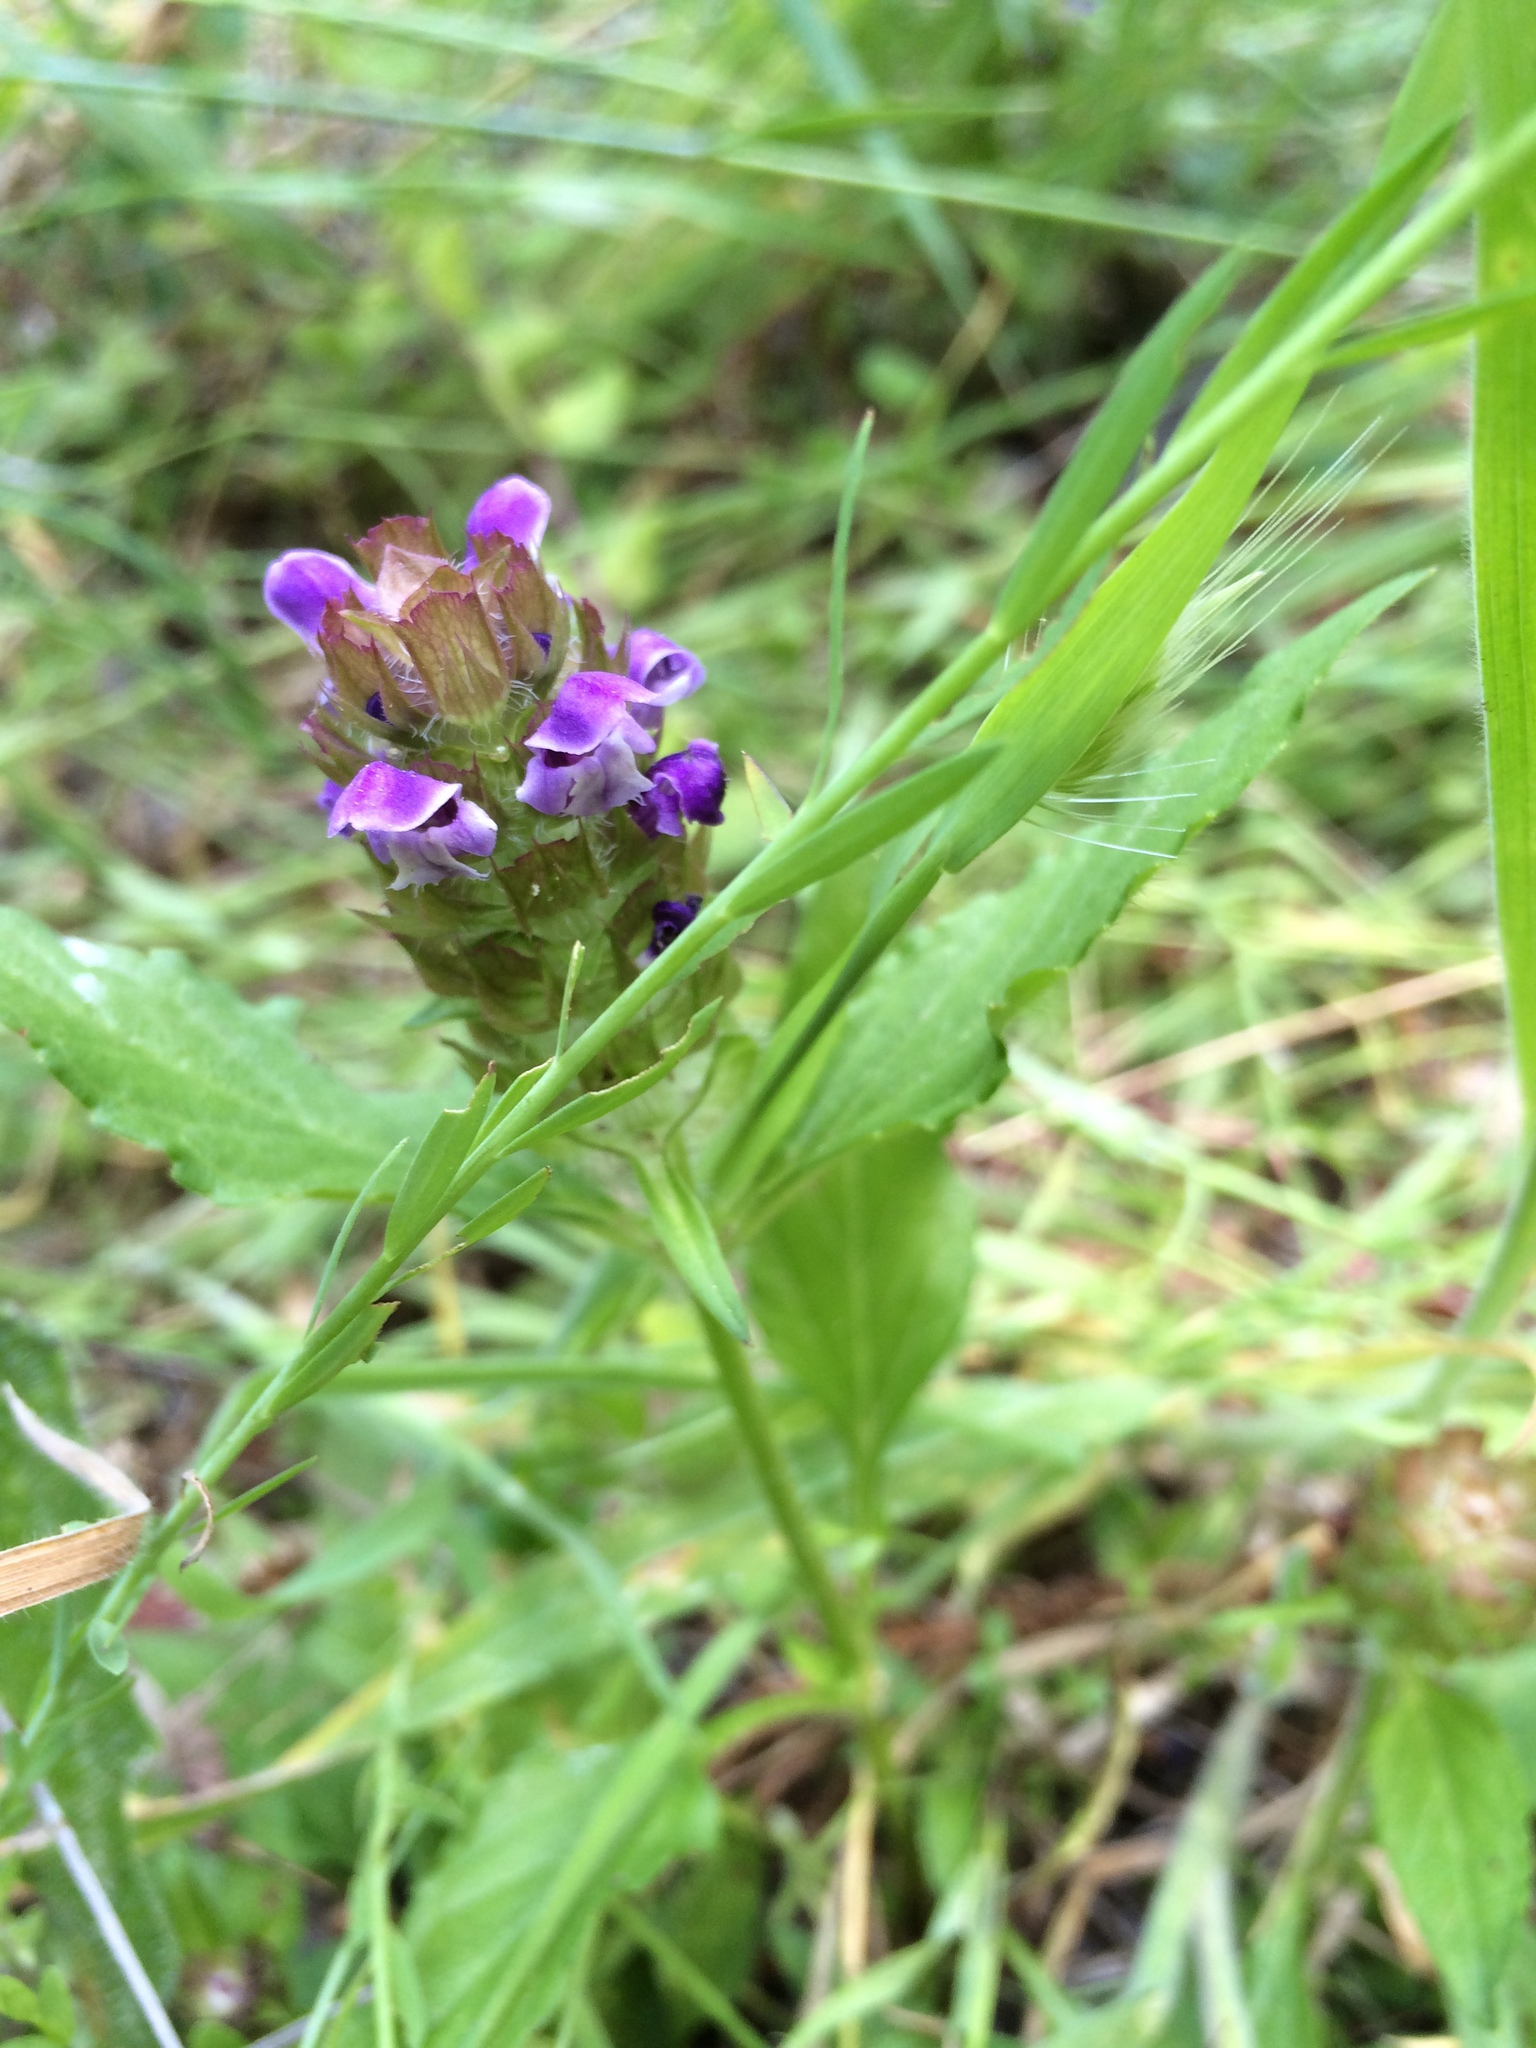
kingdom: Plantae
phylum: Tracheophyta
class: Magnoliopsida
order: Lamiales
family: Lamiaceae
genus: Prunella
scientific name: Prunella vulgaris
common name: Heal-all
